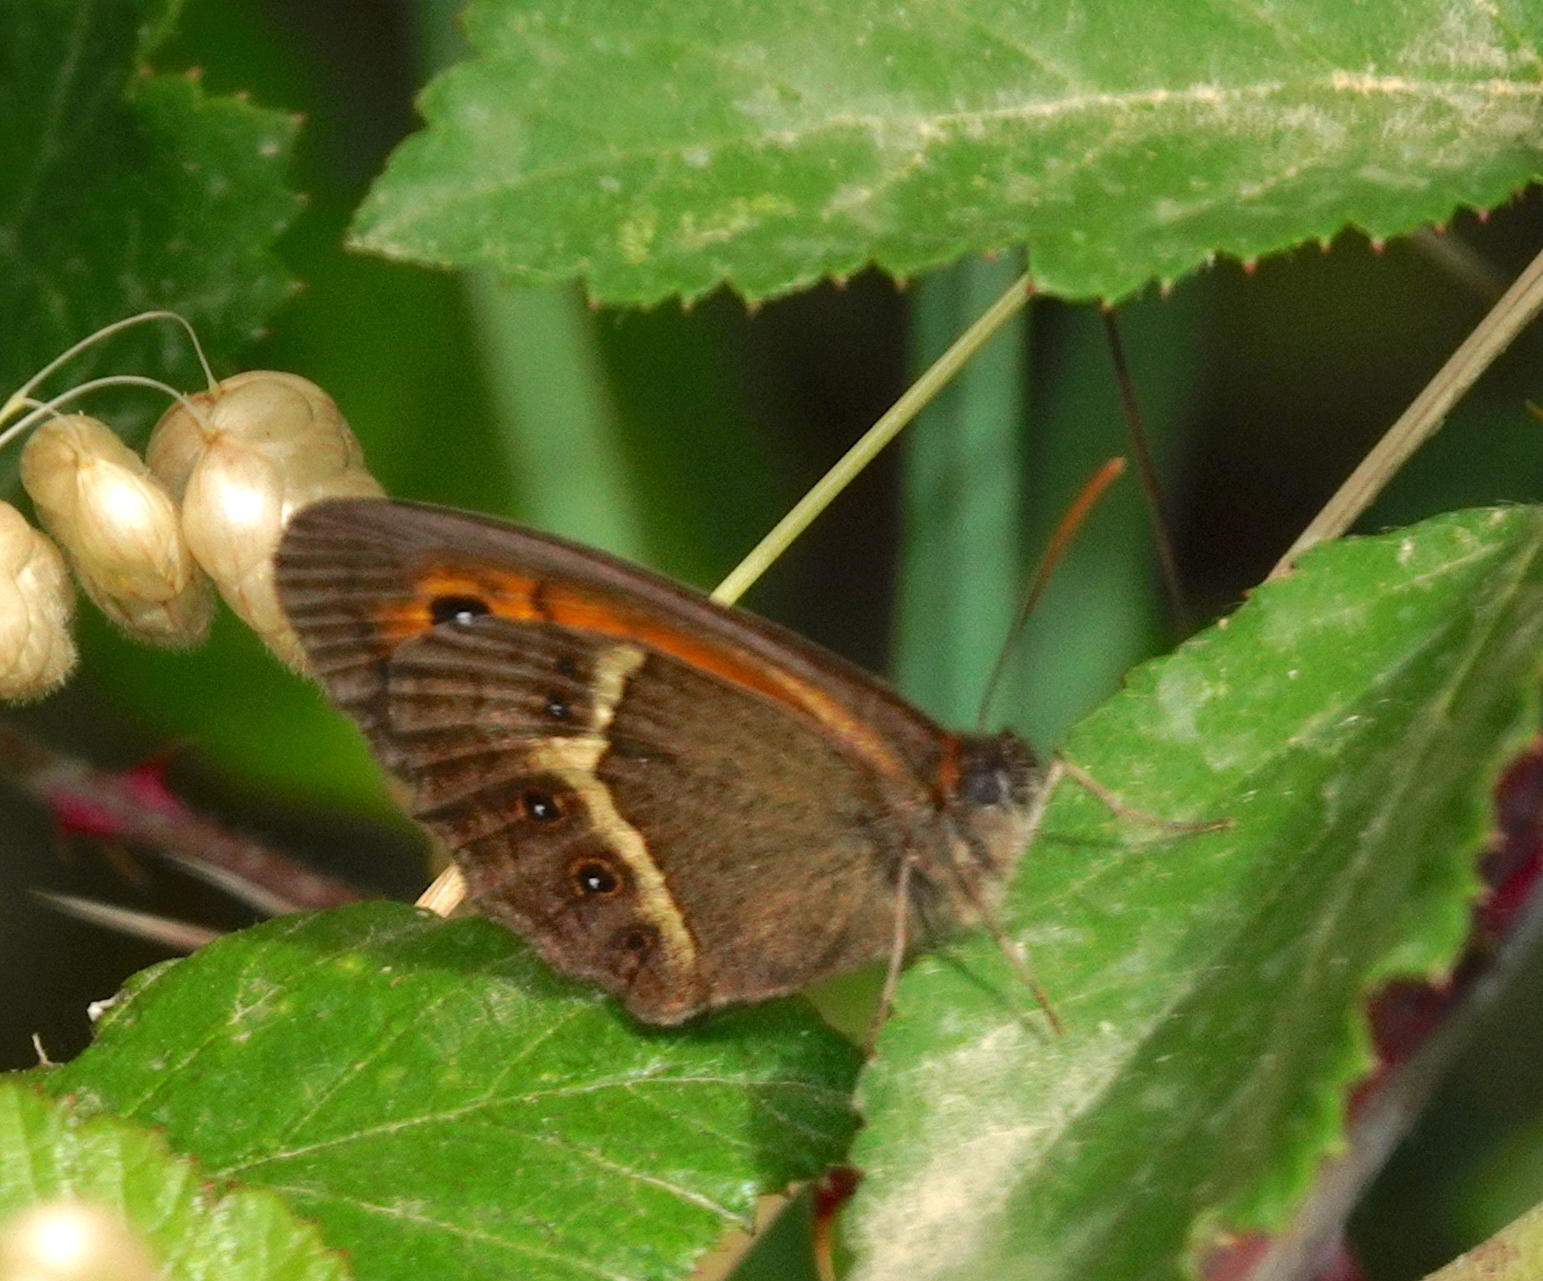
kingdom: Animalia
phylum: Arthropoda
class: Insecta
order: Lepidoptera
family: Nymphalidae
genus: Pyronia
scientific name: Pyronia bathseba
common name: Spanish gatekeeper
